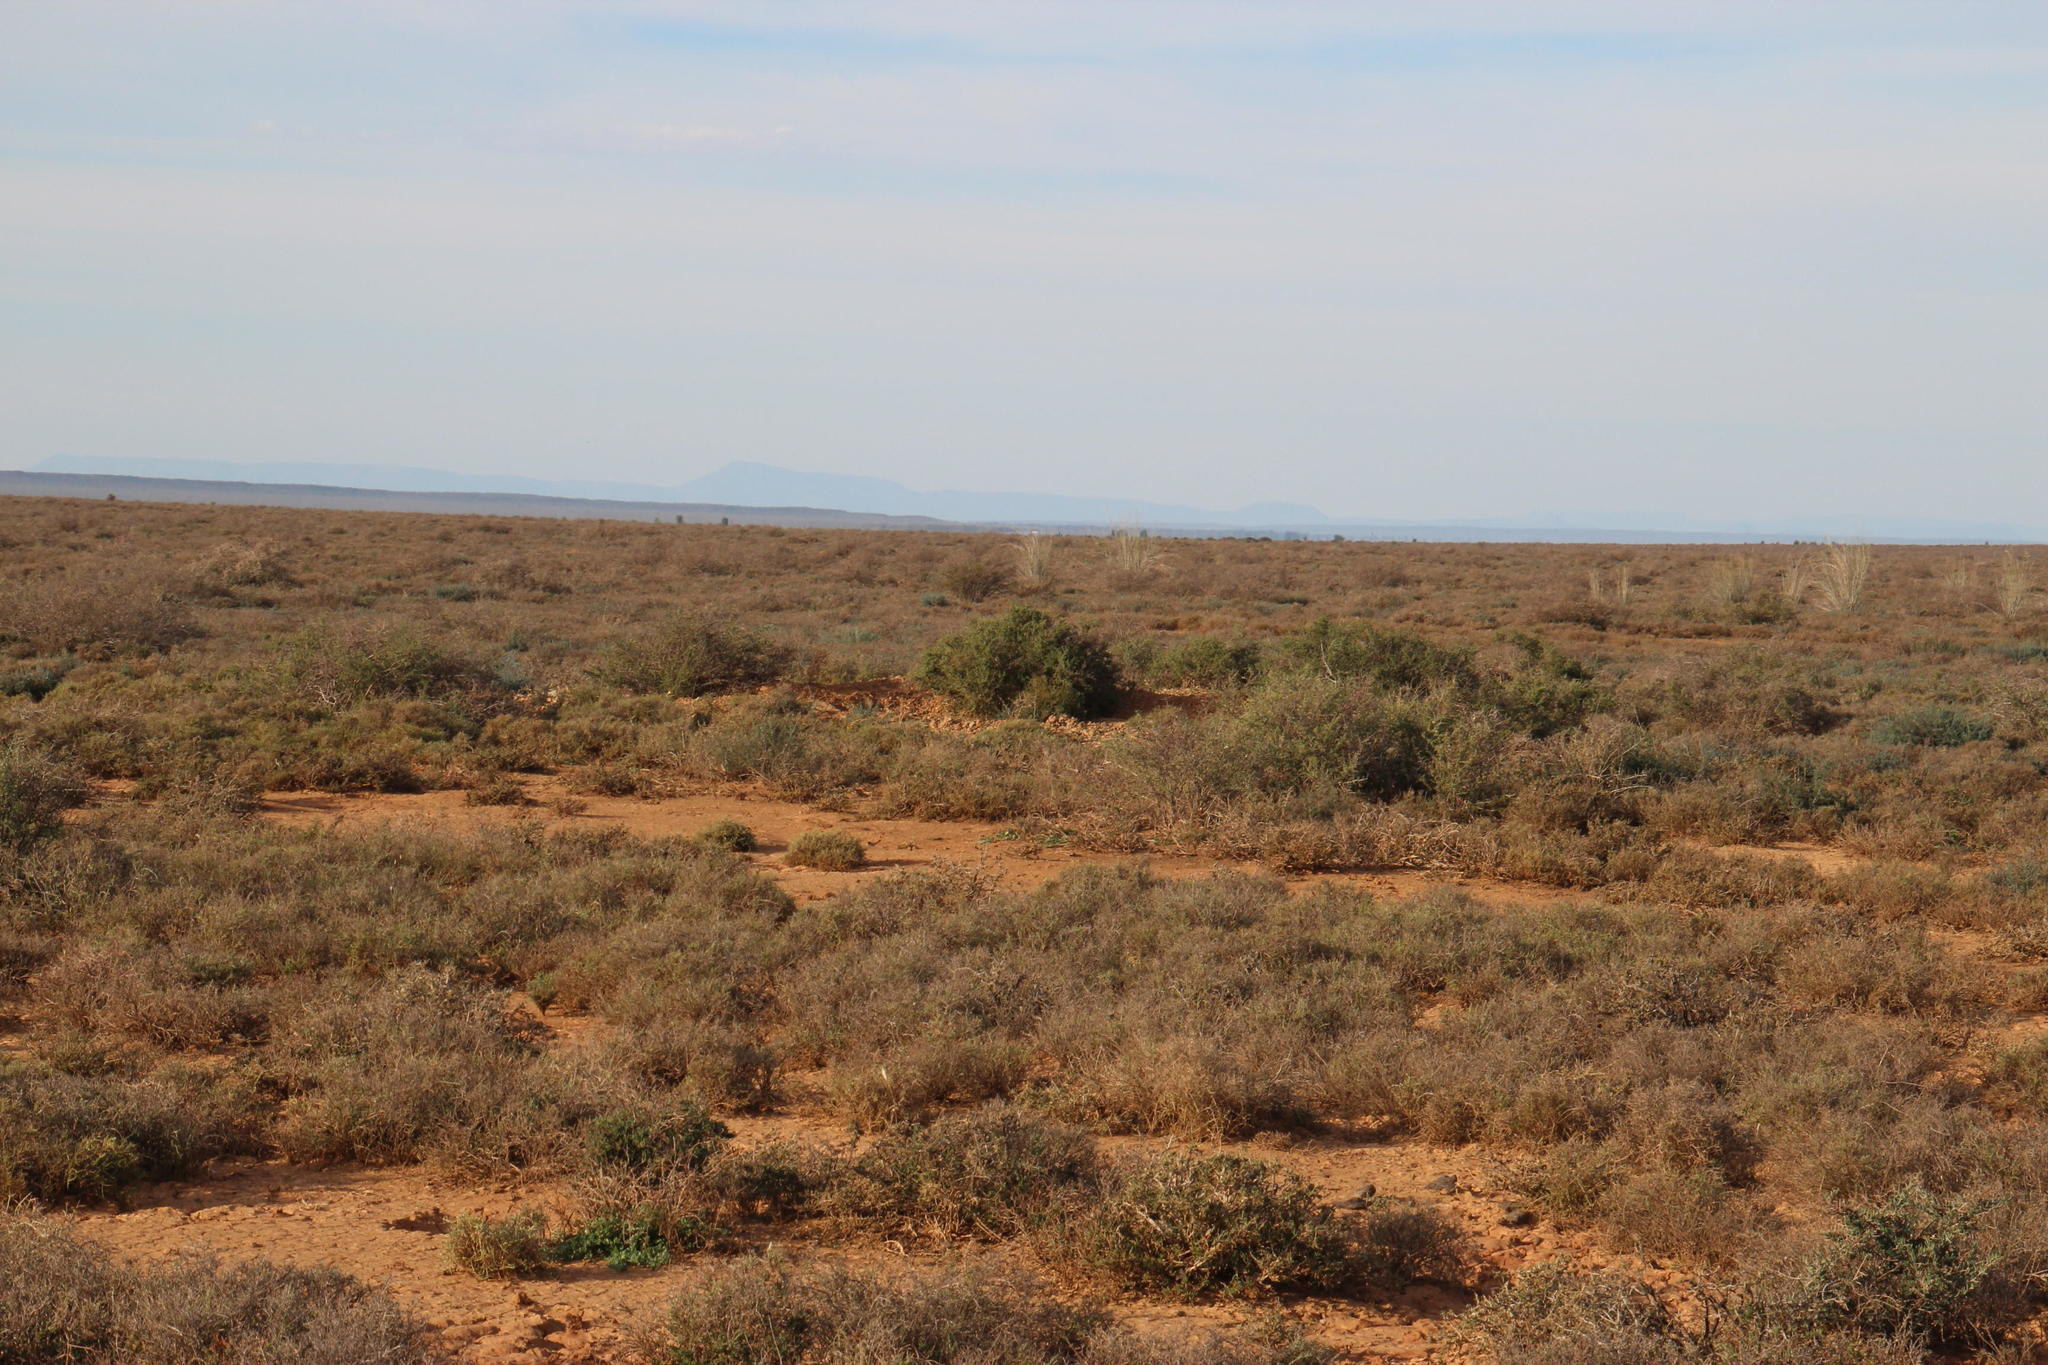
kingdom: Plantae
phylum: Tracheophyta
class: Magnoliopsida
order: Caryophyllales
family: Aizoaceae
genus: Delosperma
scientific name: Delosperma multiflorum
